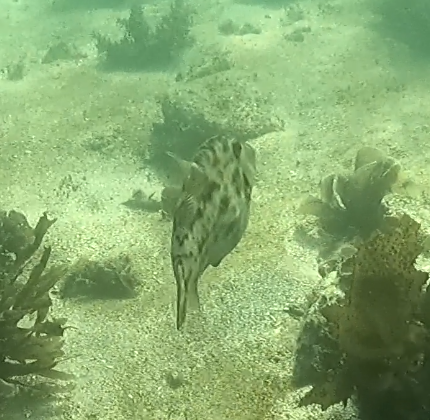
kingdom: Animalia
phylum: Chordata
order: Tetraodontiformes
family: Monacanthidae
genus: Scobinichthys
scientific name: Scobinichthys granulatus
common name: Rough leatherjacket
